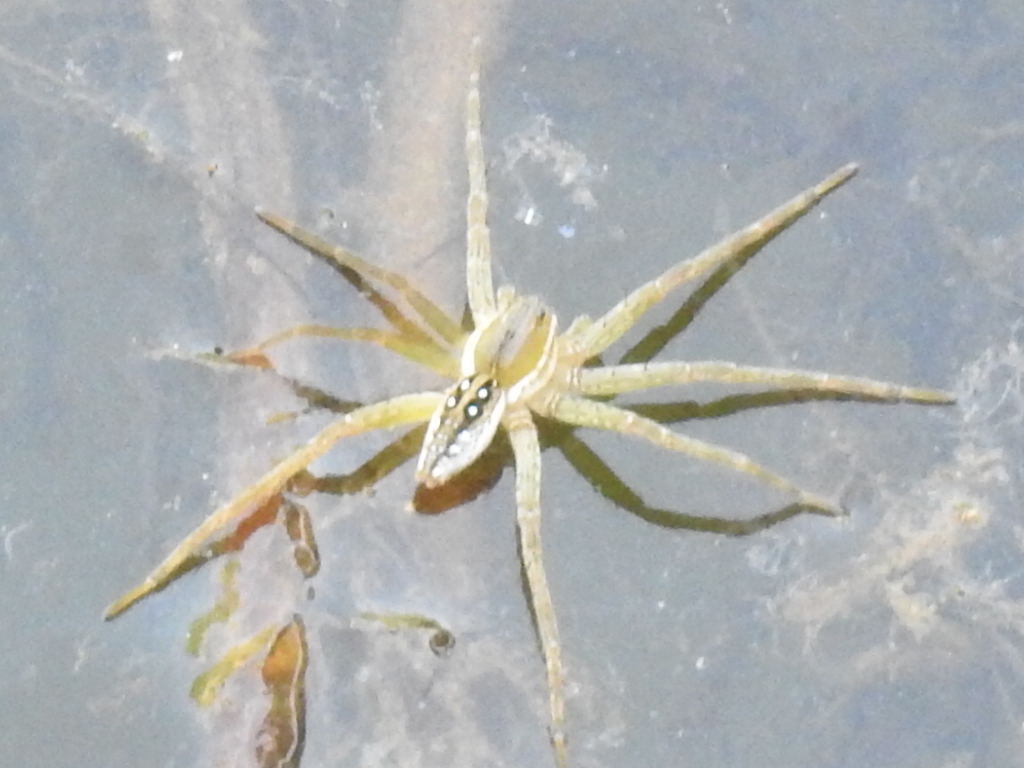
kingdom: Animalia
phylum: Arthropoda
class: Arachnida
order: Araneae
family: Pisauridae
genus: Dolomedes
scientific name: Dolomedes triton
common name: Six-spotted fishing spider
